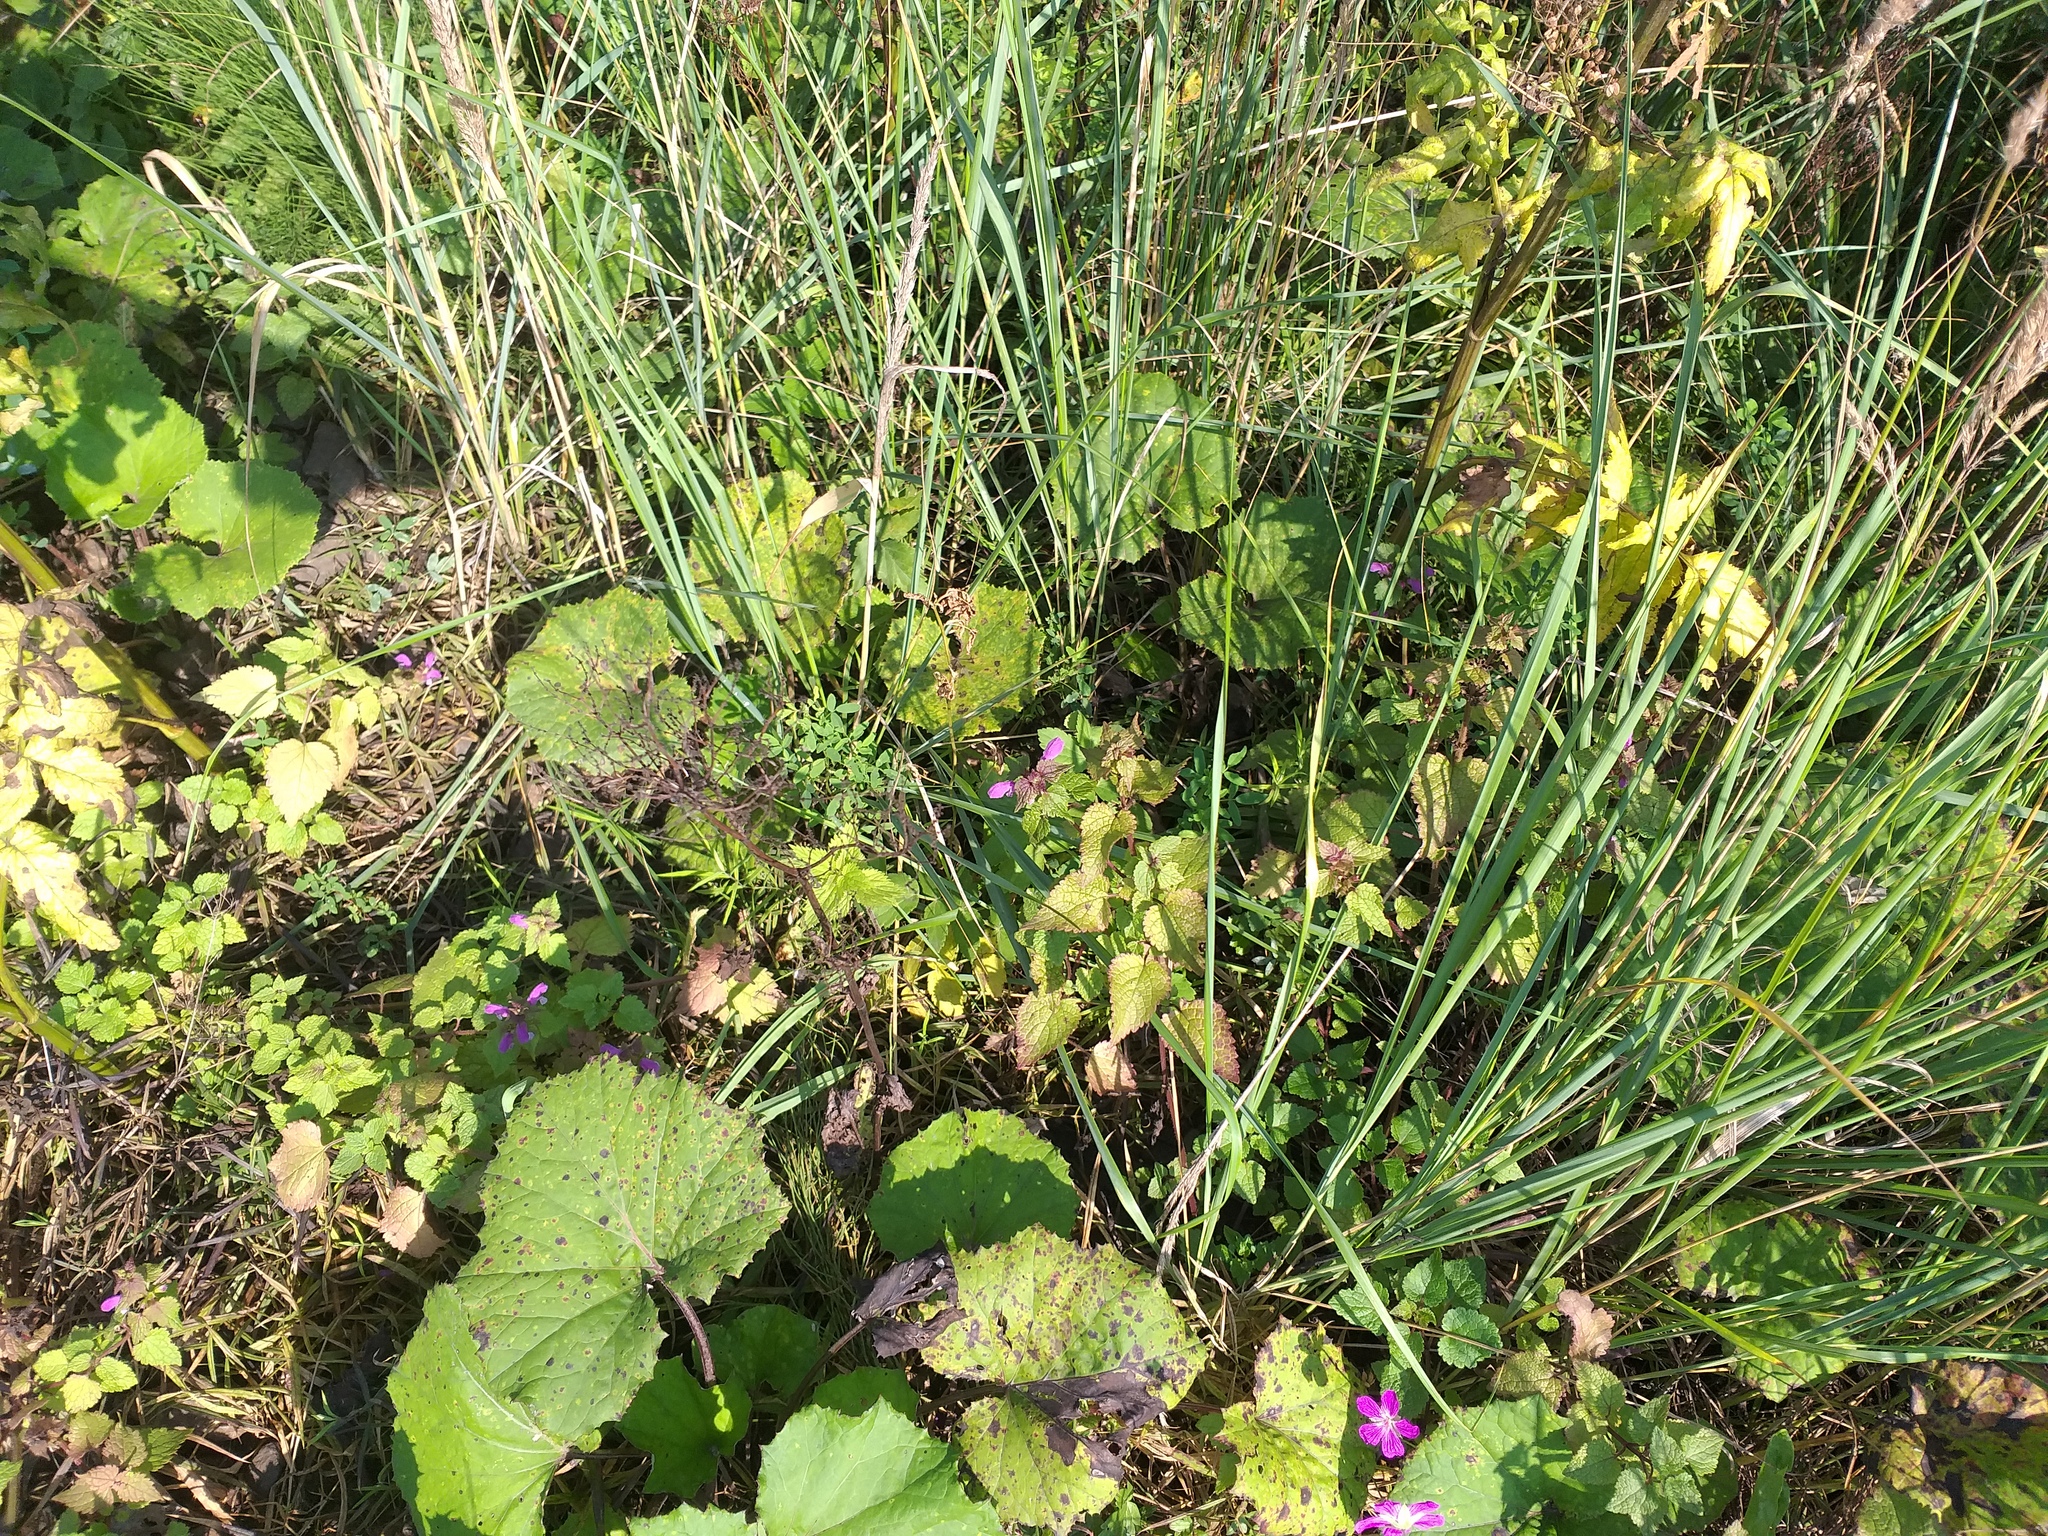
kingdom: Plantae
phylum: Tracheophyta
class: Magnoliopsida
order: Lamiales
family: Lamiaceae
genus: Lamium
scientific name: Lamium maculatum
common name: Spotted dead-nettle
